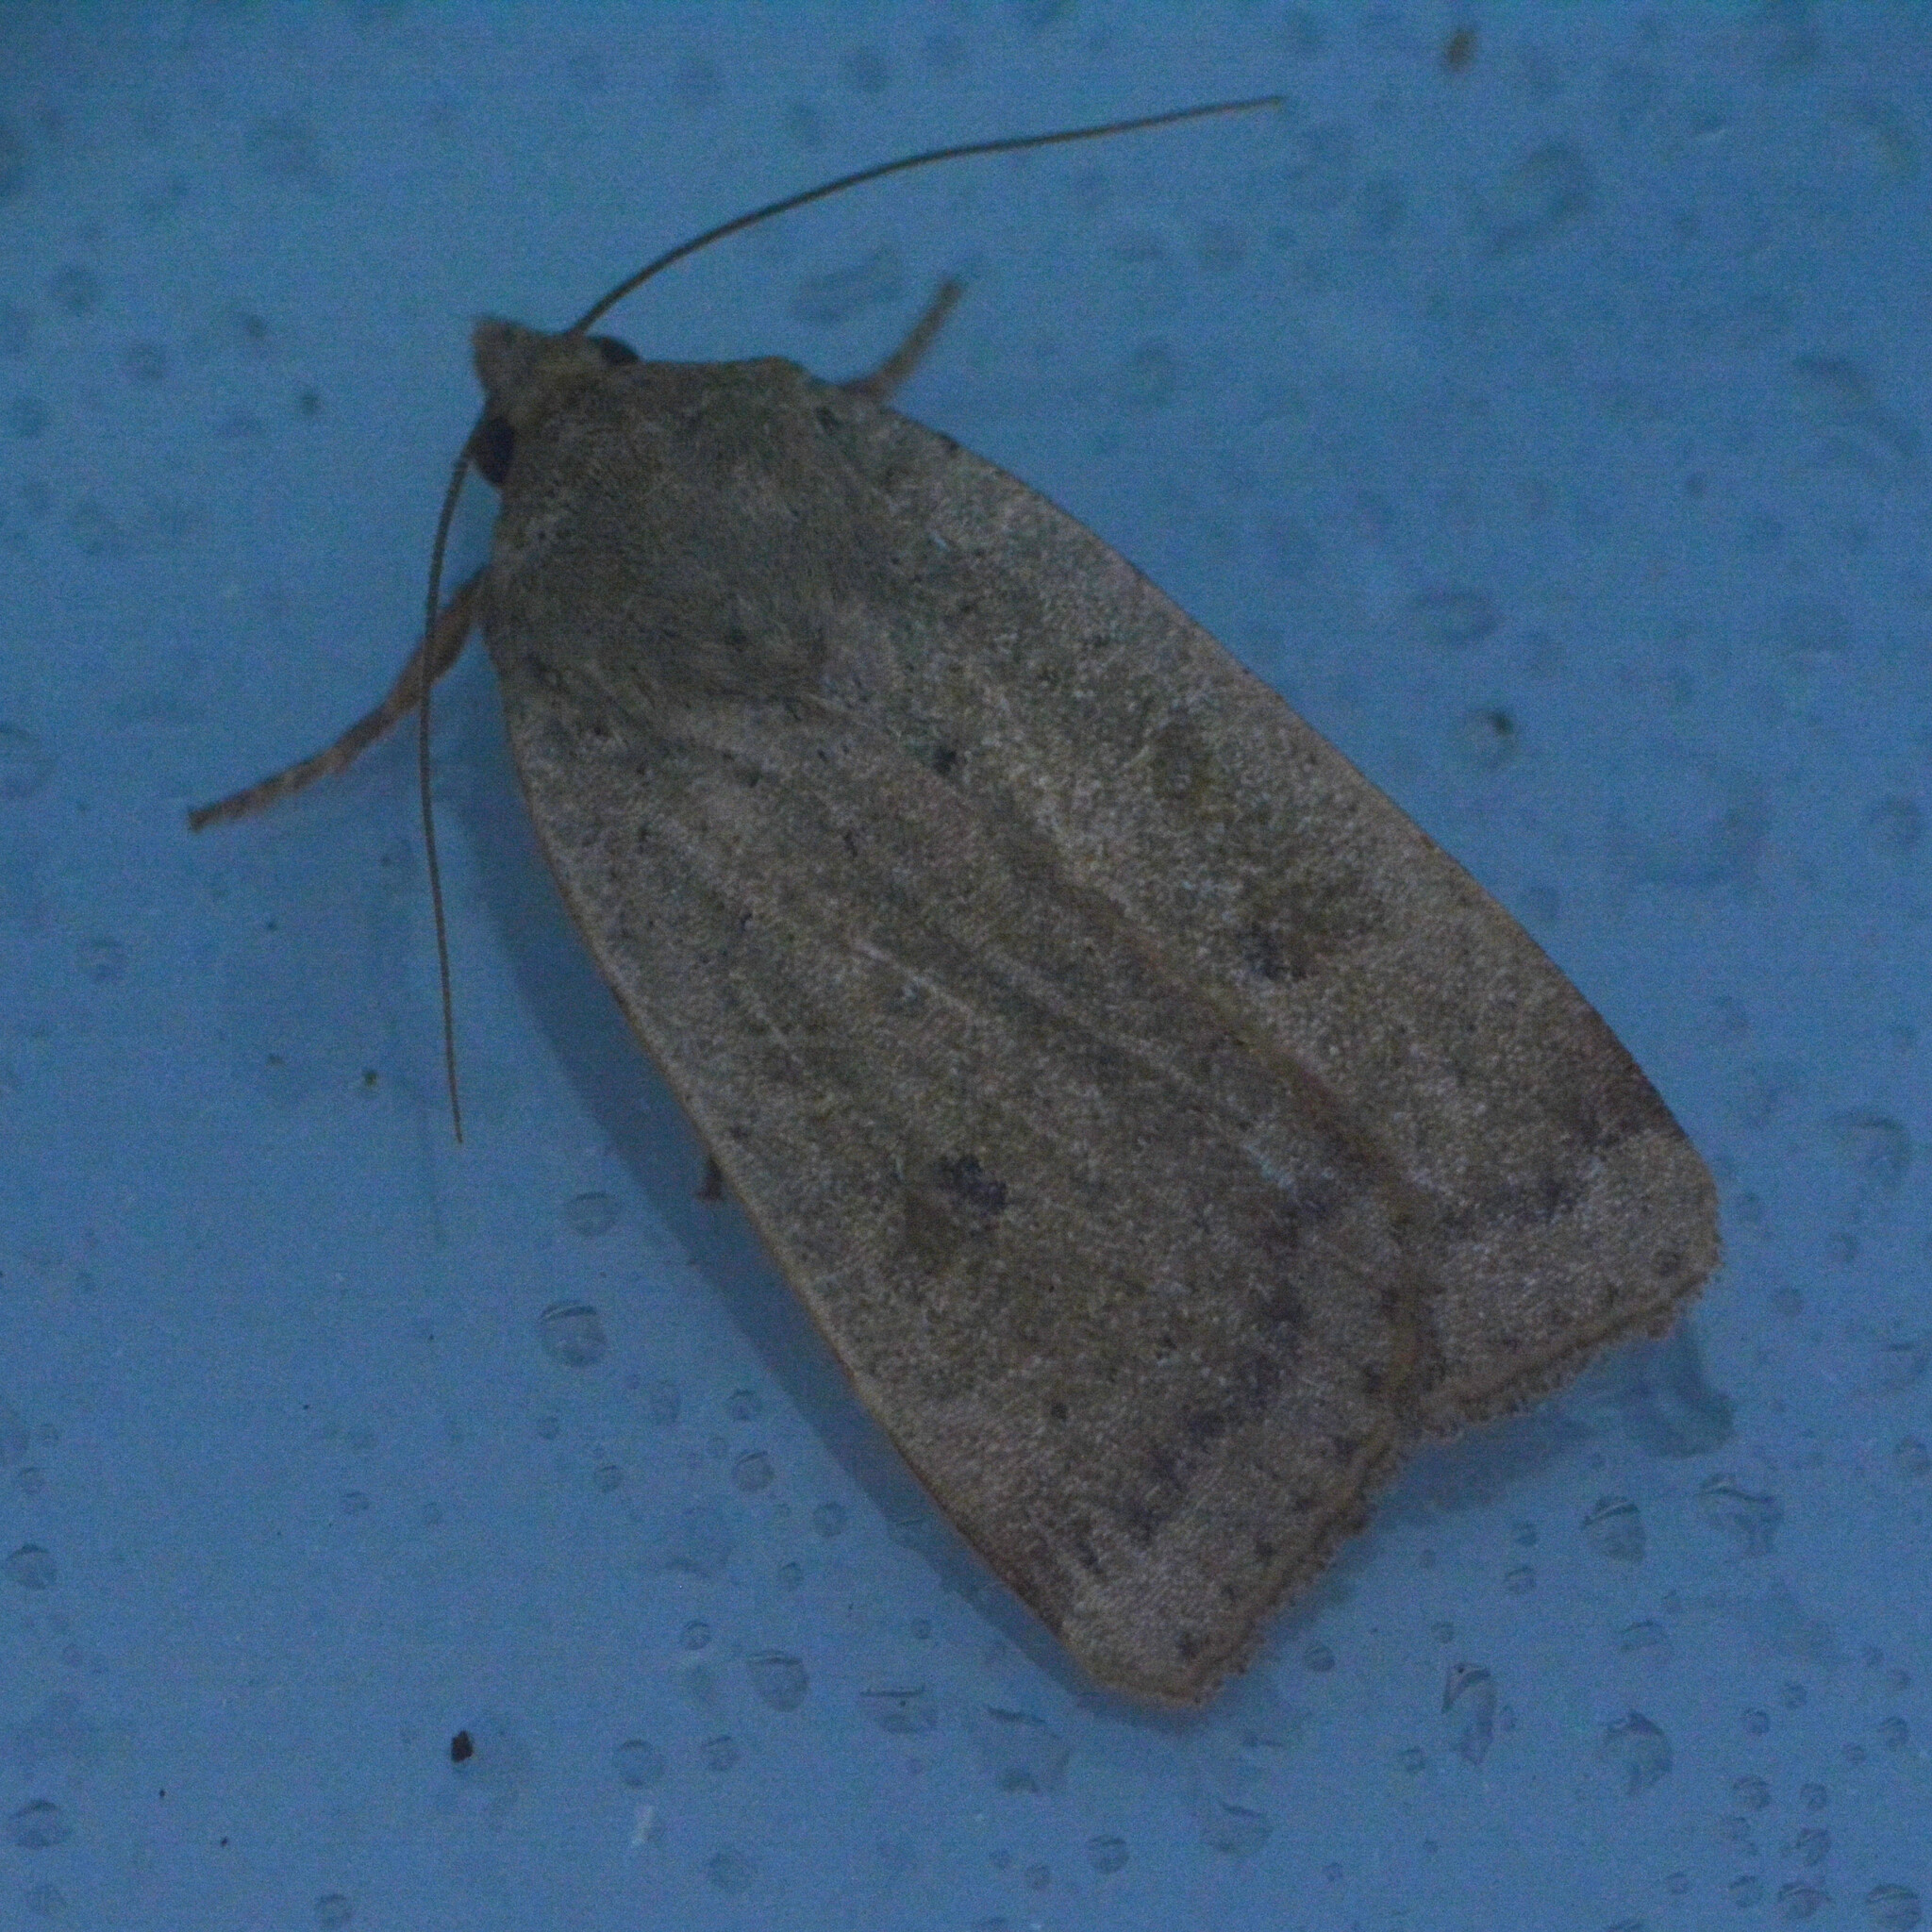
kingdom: Animalia
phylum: Arthropoda
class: Insecta
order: Lepidoptera
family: Noctuidae
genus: Noctua
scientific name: Noctua comes
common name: Lesser yellow underwing
